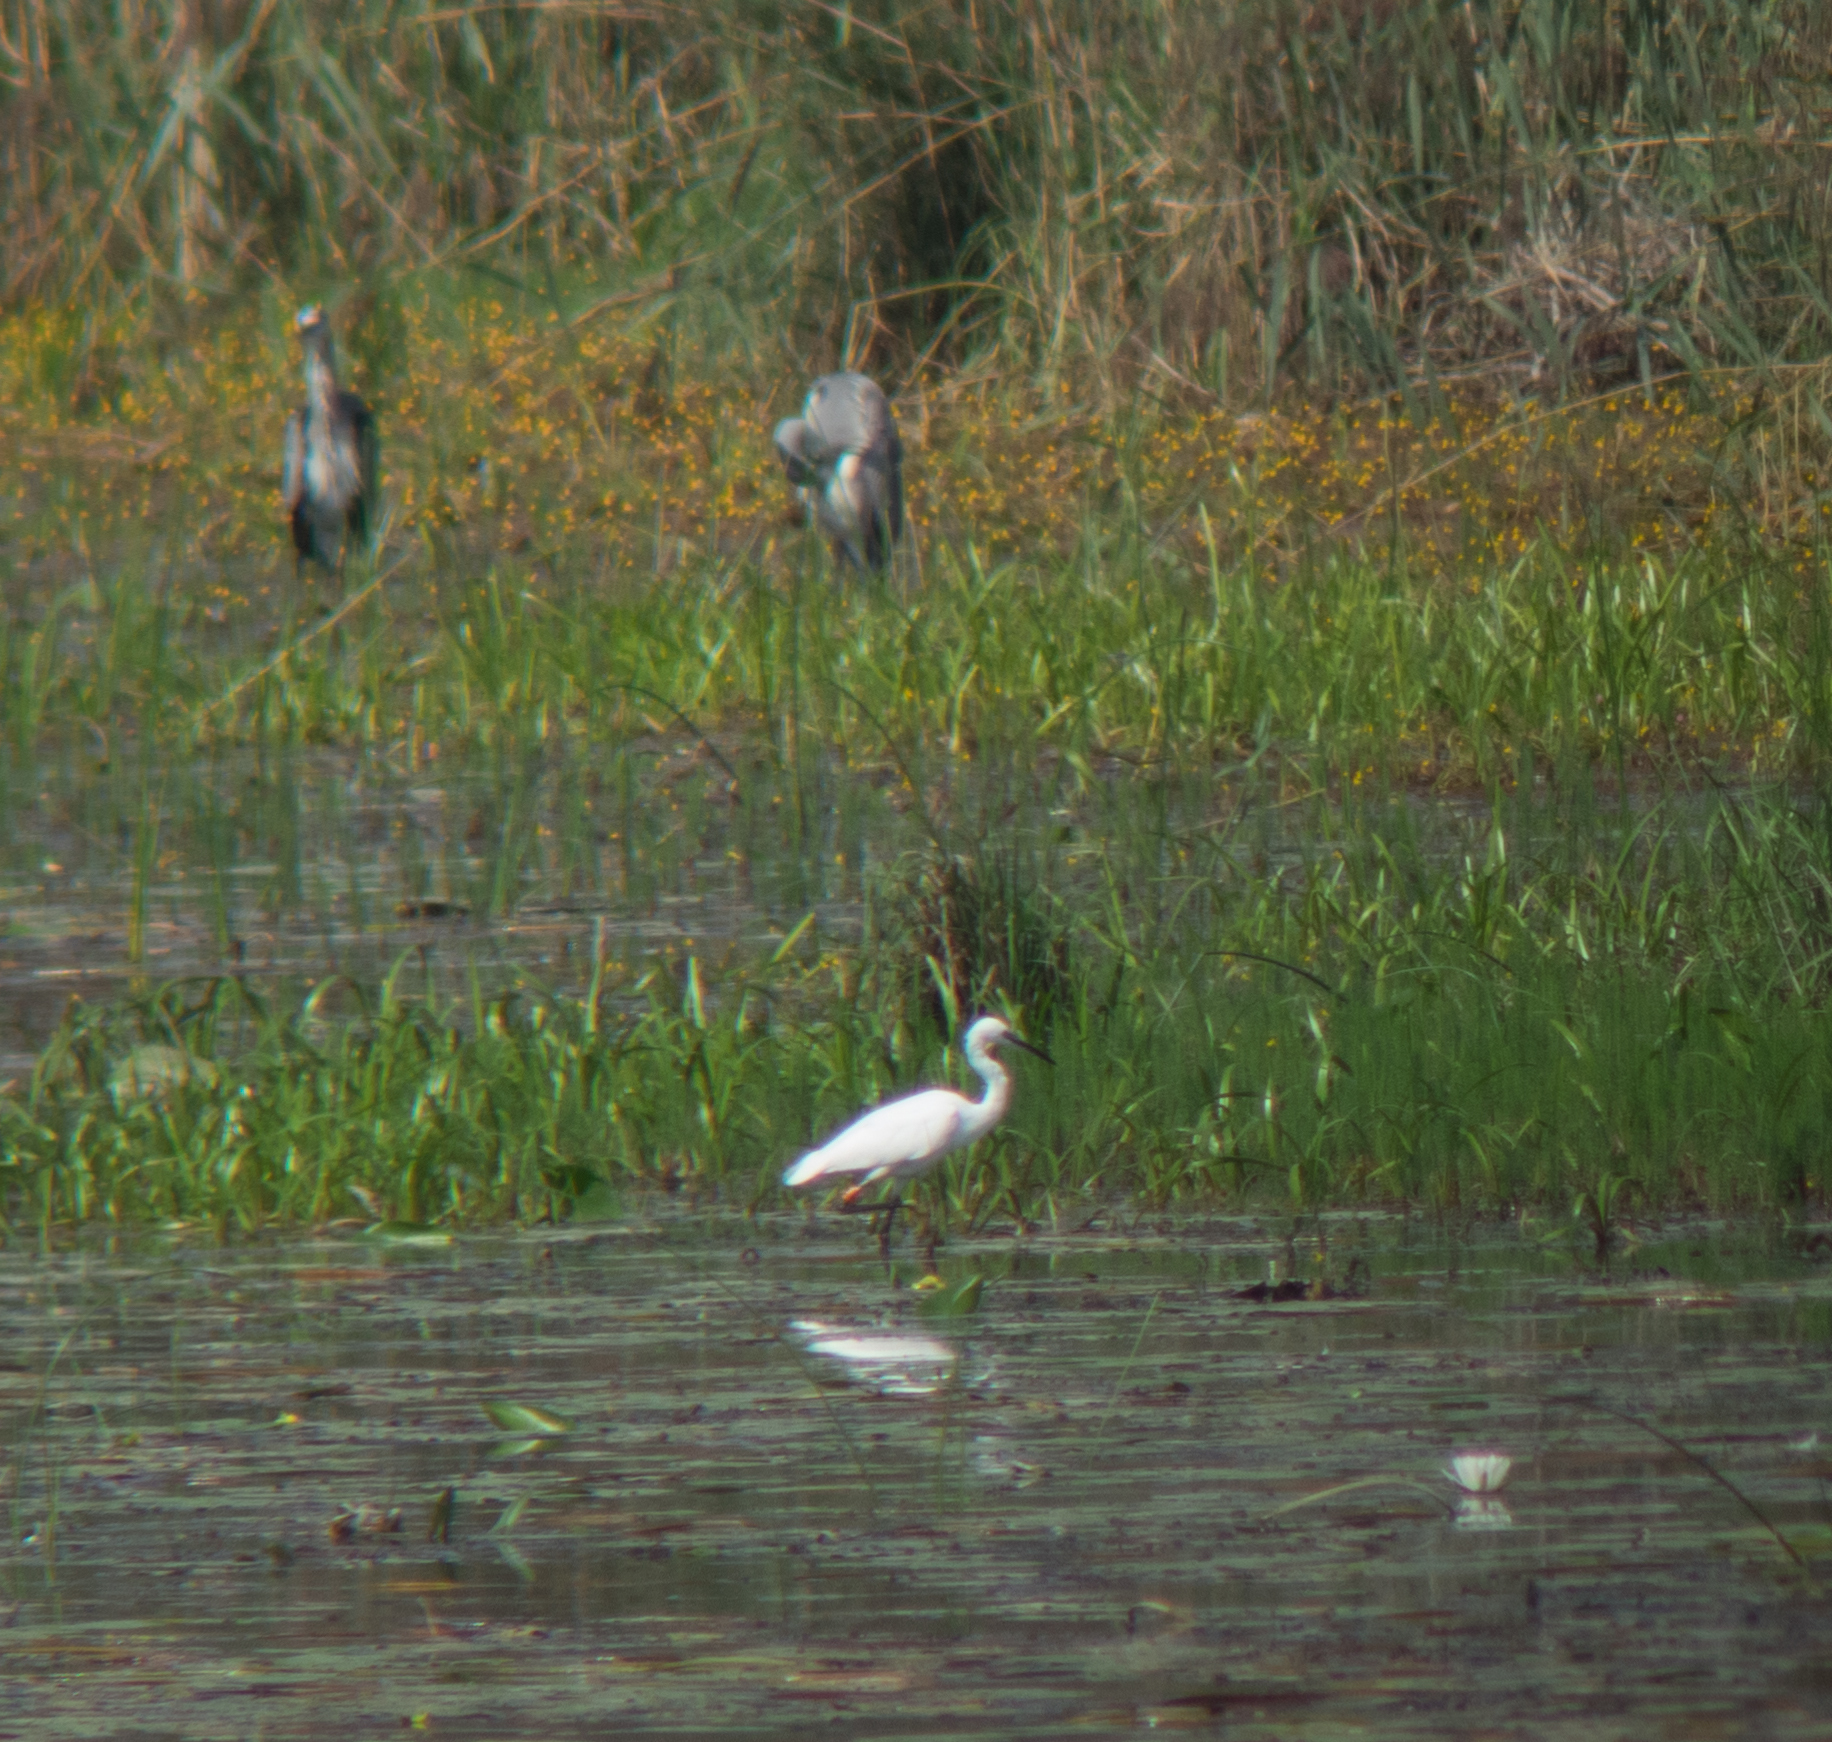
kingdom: Animalia
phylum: Chordata
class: Aves
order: Pelecaniformes
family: Ardeidae
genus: Egretta
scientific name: Egretta garzetta
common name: Little egret
